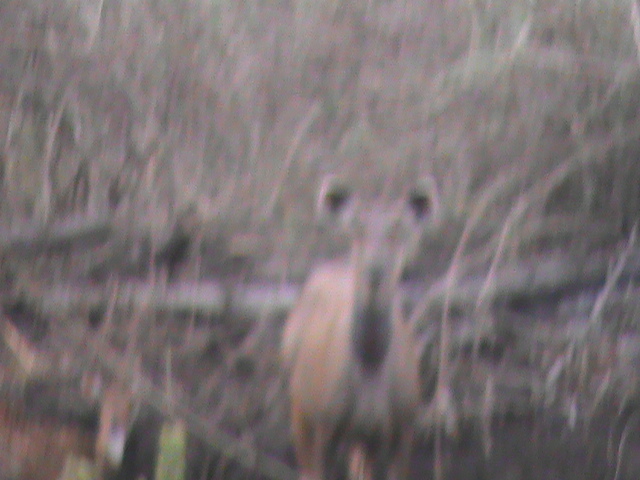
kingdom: Animalia
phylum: Chordata
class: Mammalia
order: Artiodactyla
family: Cervidae
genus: Rusa
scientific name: Rusa unicolor
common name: Sambar
